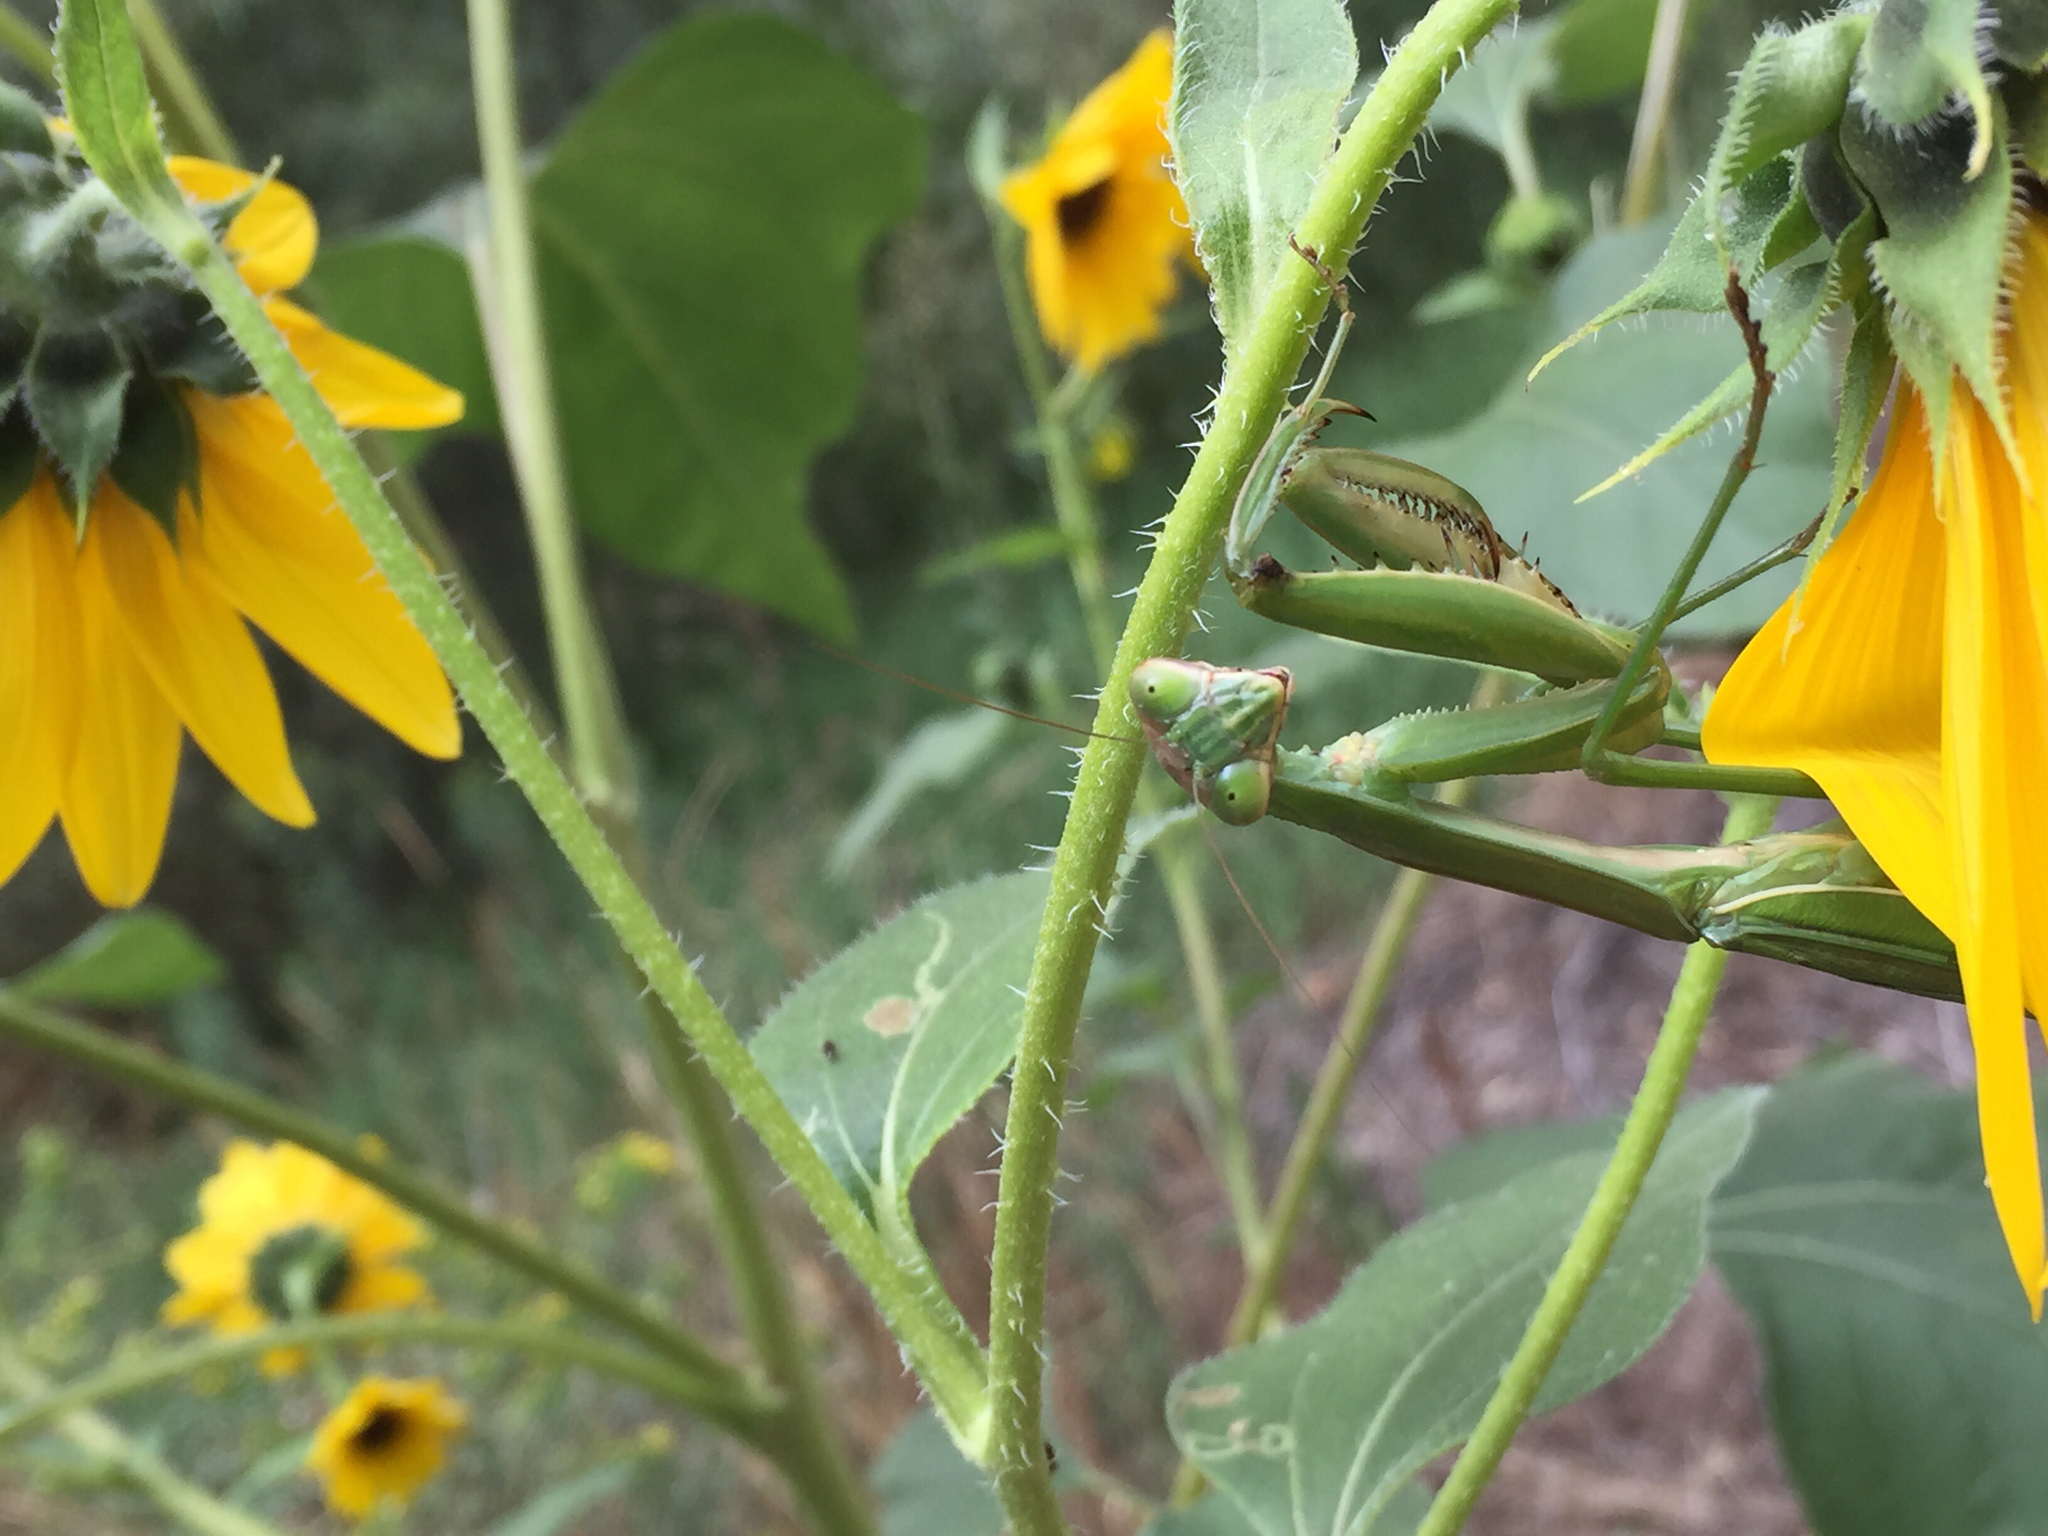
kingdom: Animalia
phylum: Arthropoda
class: Insecta
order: Mantodea
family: Mantidae
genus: Tenodera
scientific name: Tenodera sinensis
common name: Chinese mantis
